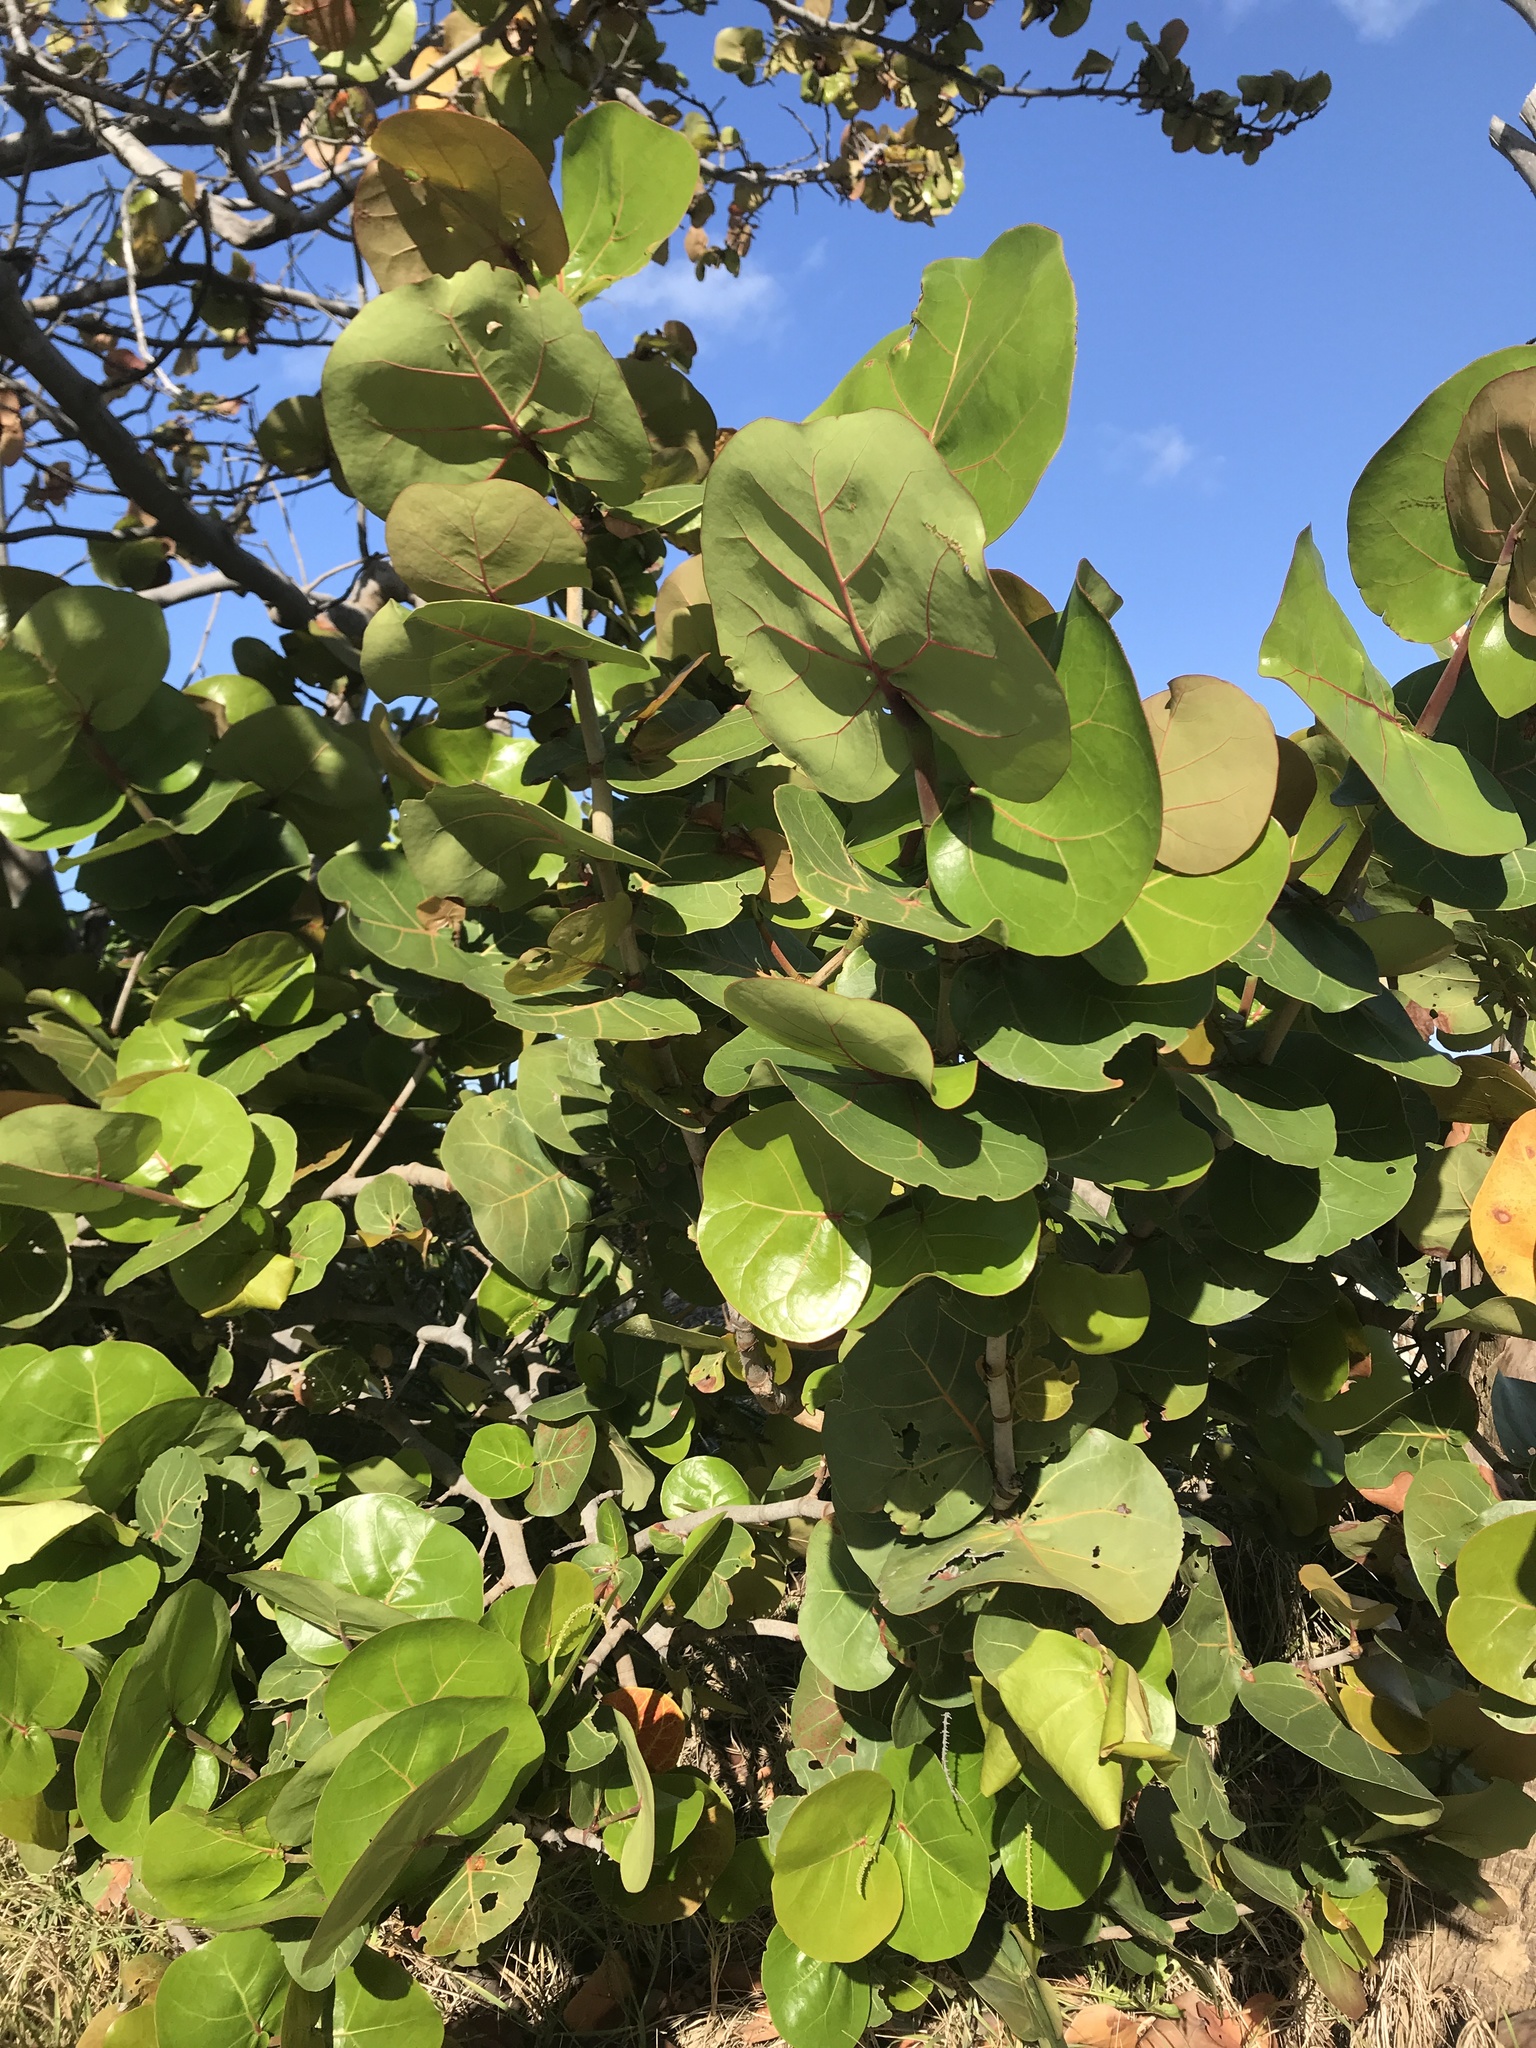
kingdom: Plantae
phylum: Tracheophyta
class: Magnoliopsida
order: Caryophyllales
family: Polygonaceae
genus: Coccoloba
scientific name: Coccoloba uvifera
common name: Seagrape
